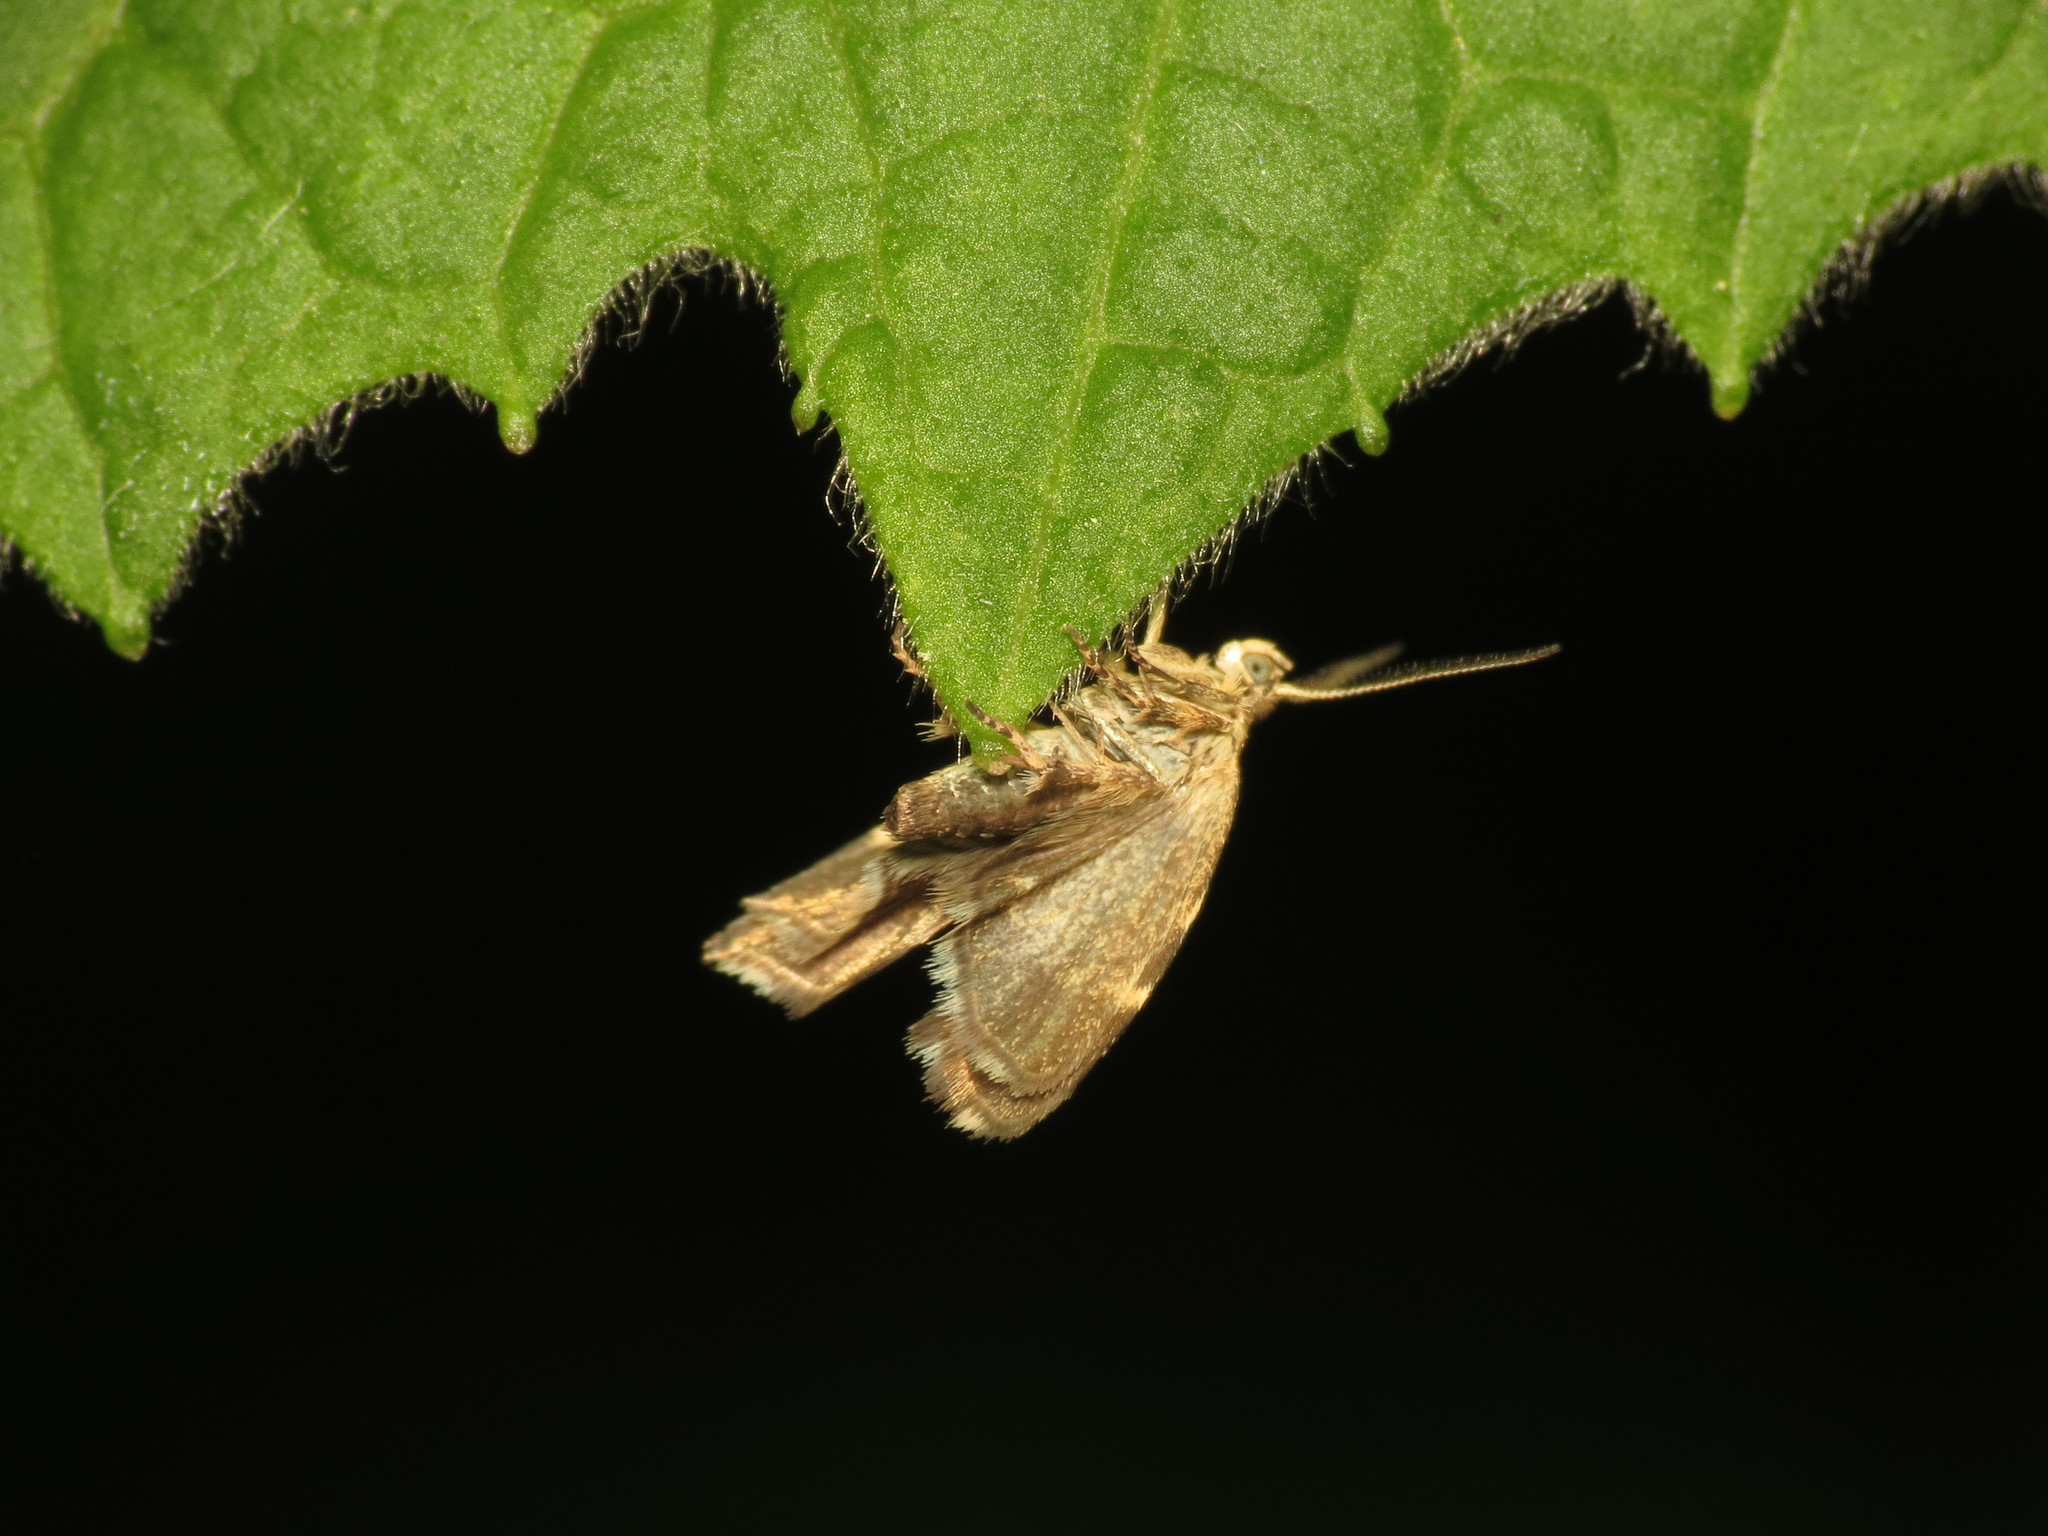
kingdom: Animalia
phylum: Arthropoda
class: Insecta
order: Lepidoptera
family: Choreutidae
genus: Anthophila
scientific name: Anthophila fabriciana
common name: Nettle-tap
